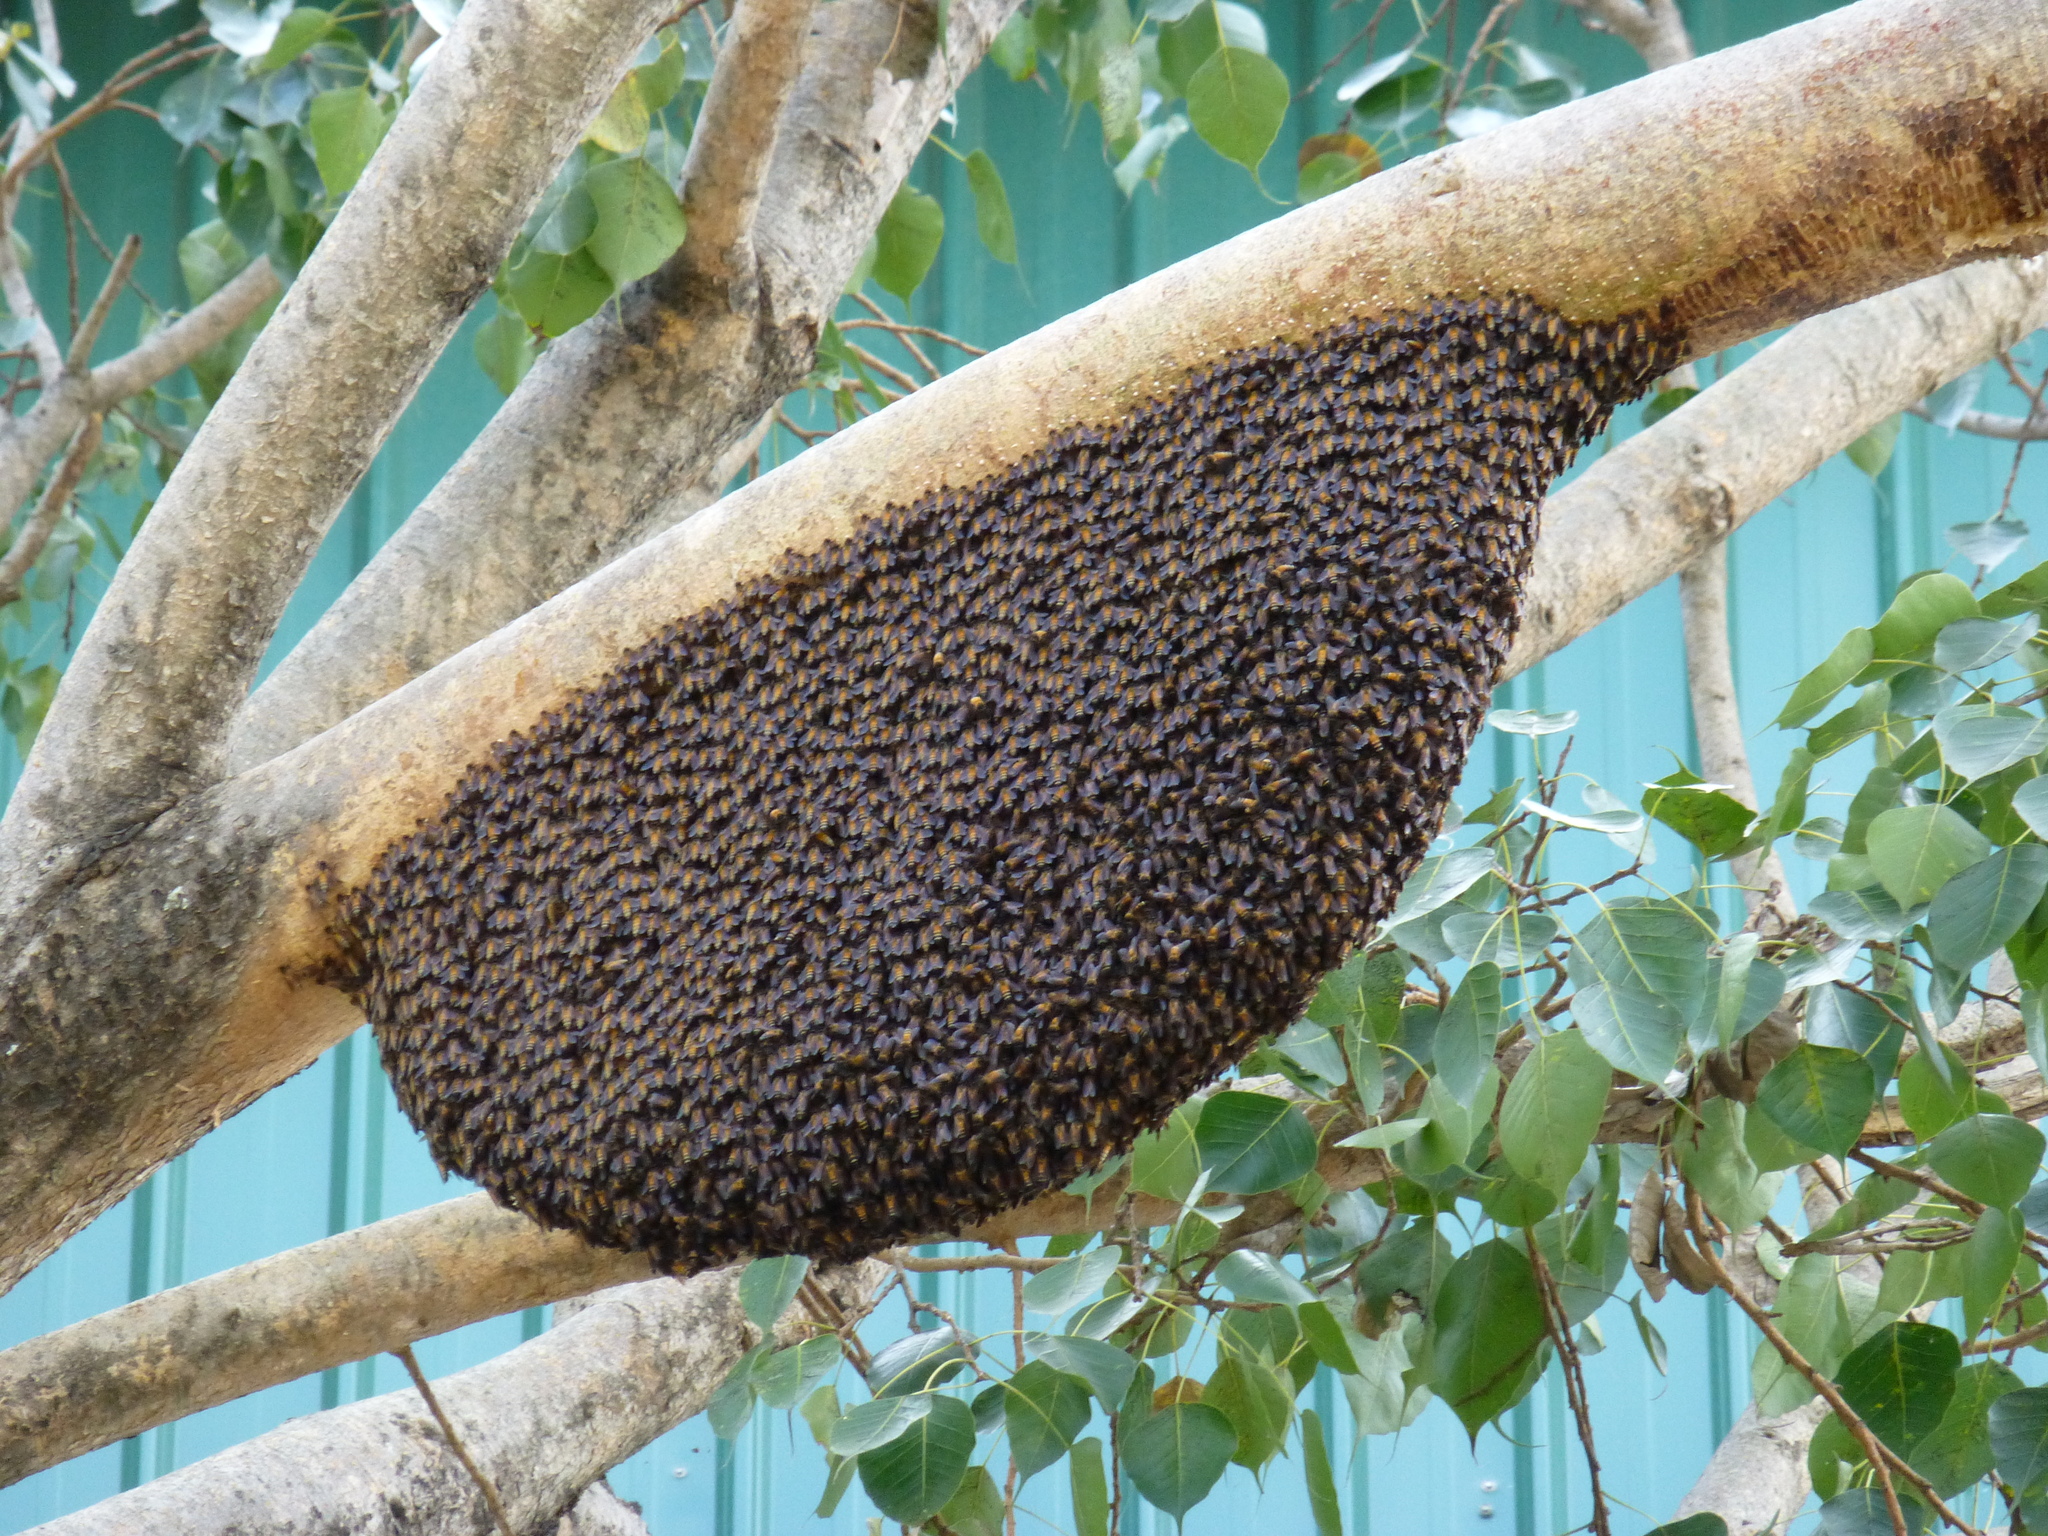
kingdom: Animalia
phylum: Arthropoda
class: Insecta
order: Hymenoptera
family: Apidae
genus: Apis
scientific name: Apis dorsata
